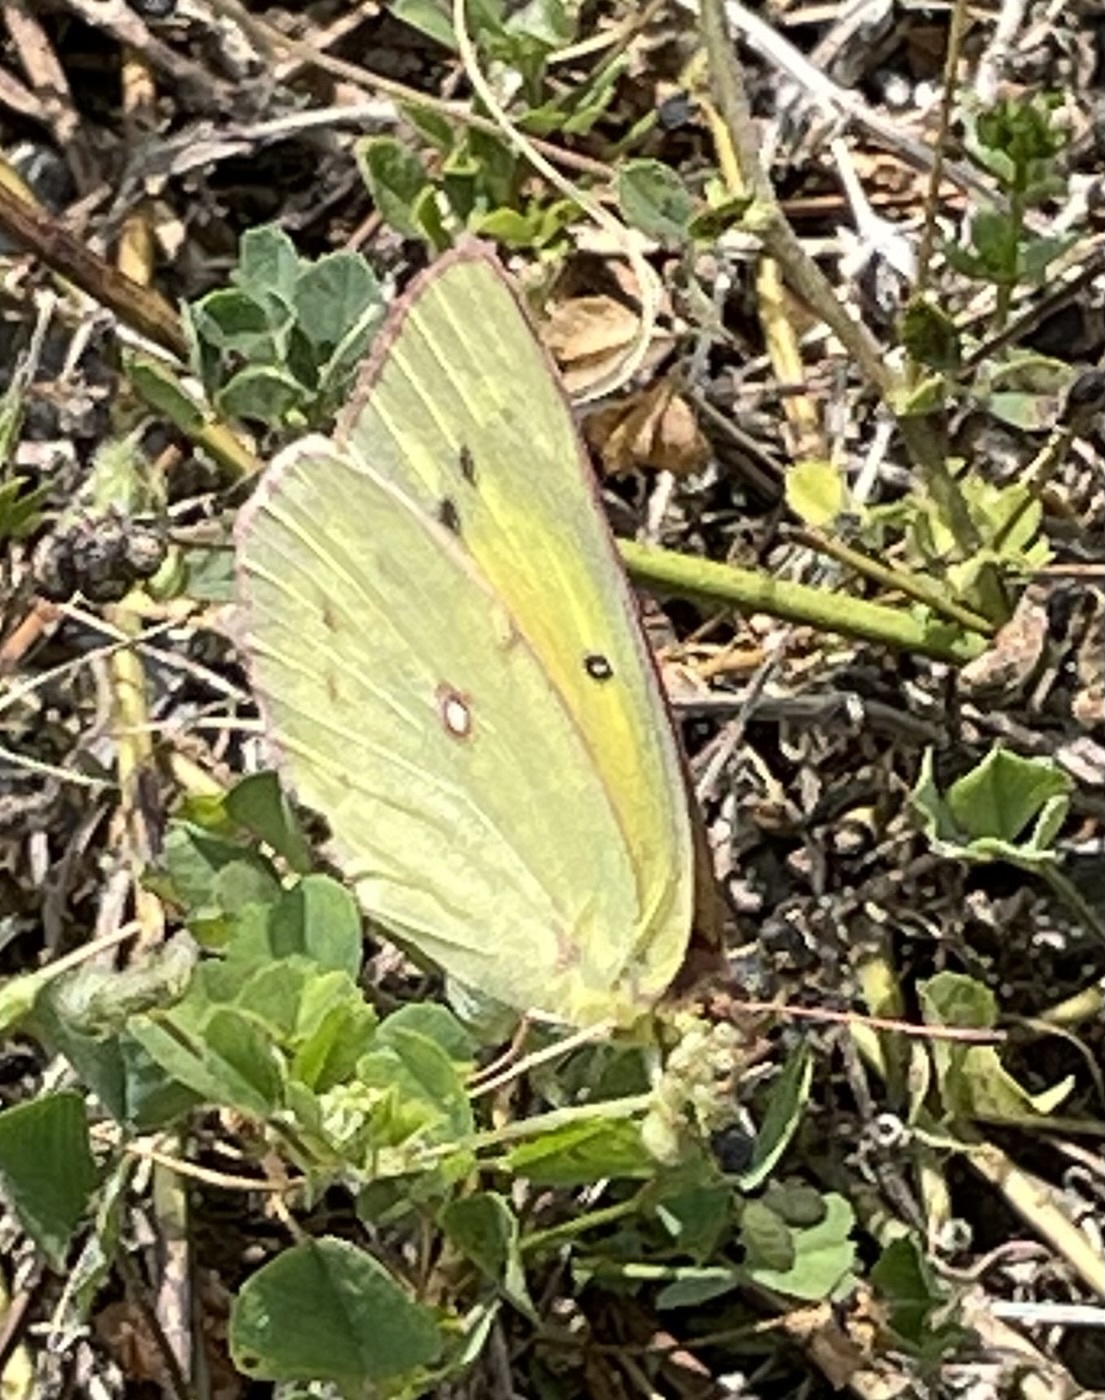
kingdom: Animalia
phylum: Arthropoda
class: Insecta
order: Lepidoptera
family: Pieridae
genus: Colias
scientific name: Colias eurytheme
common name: Alfalfa butterfly
